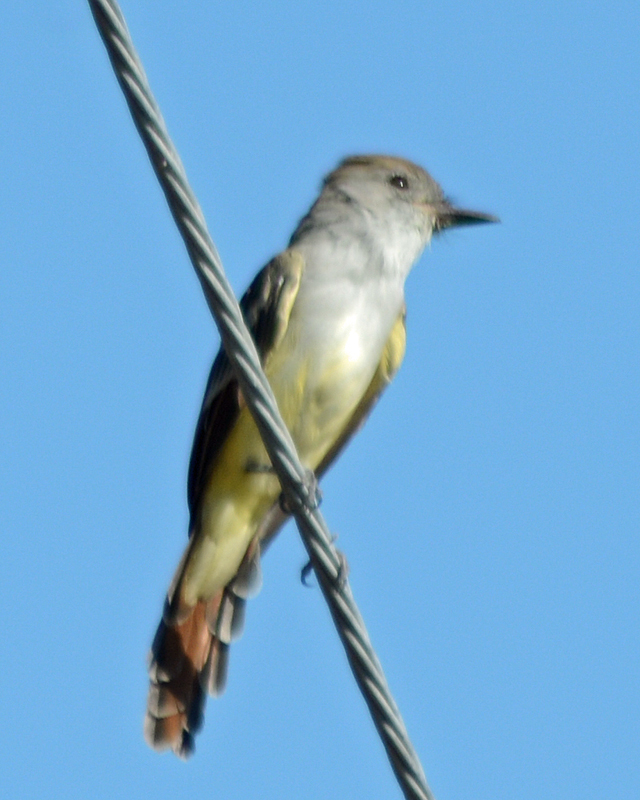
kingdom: Animalia
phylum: Chordata
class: Aves
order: Passeriformes
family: Tyrannidae
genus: Myiarchus
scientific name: Myiarchus cinerascens
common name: Ash-throated flycatcher
